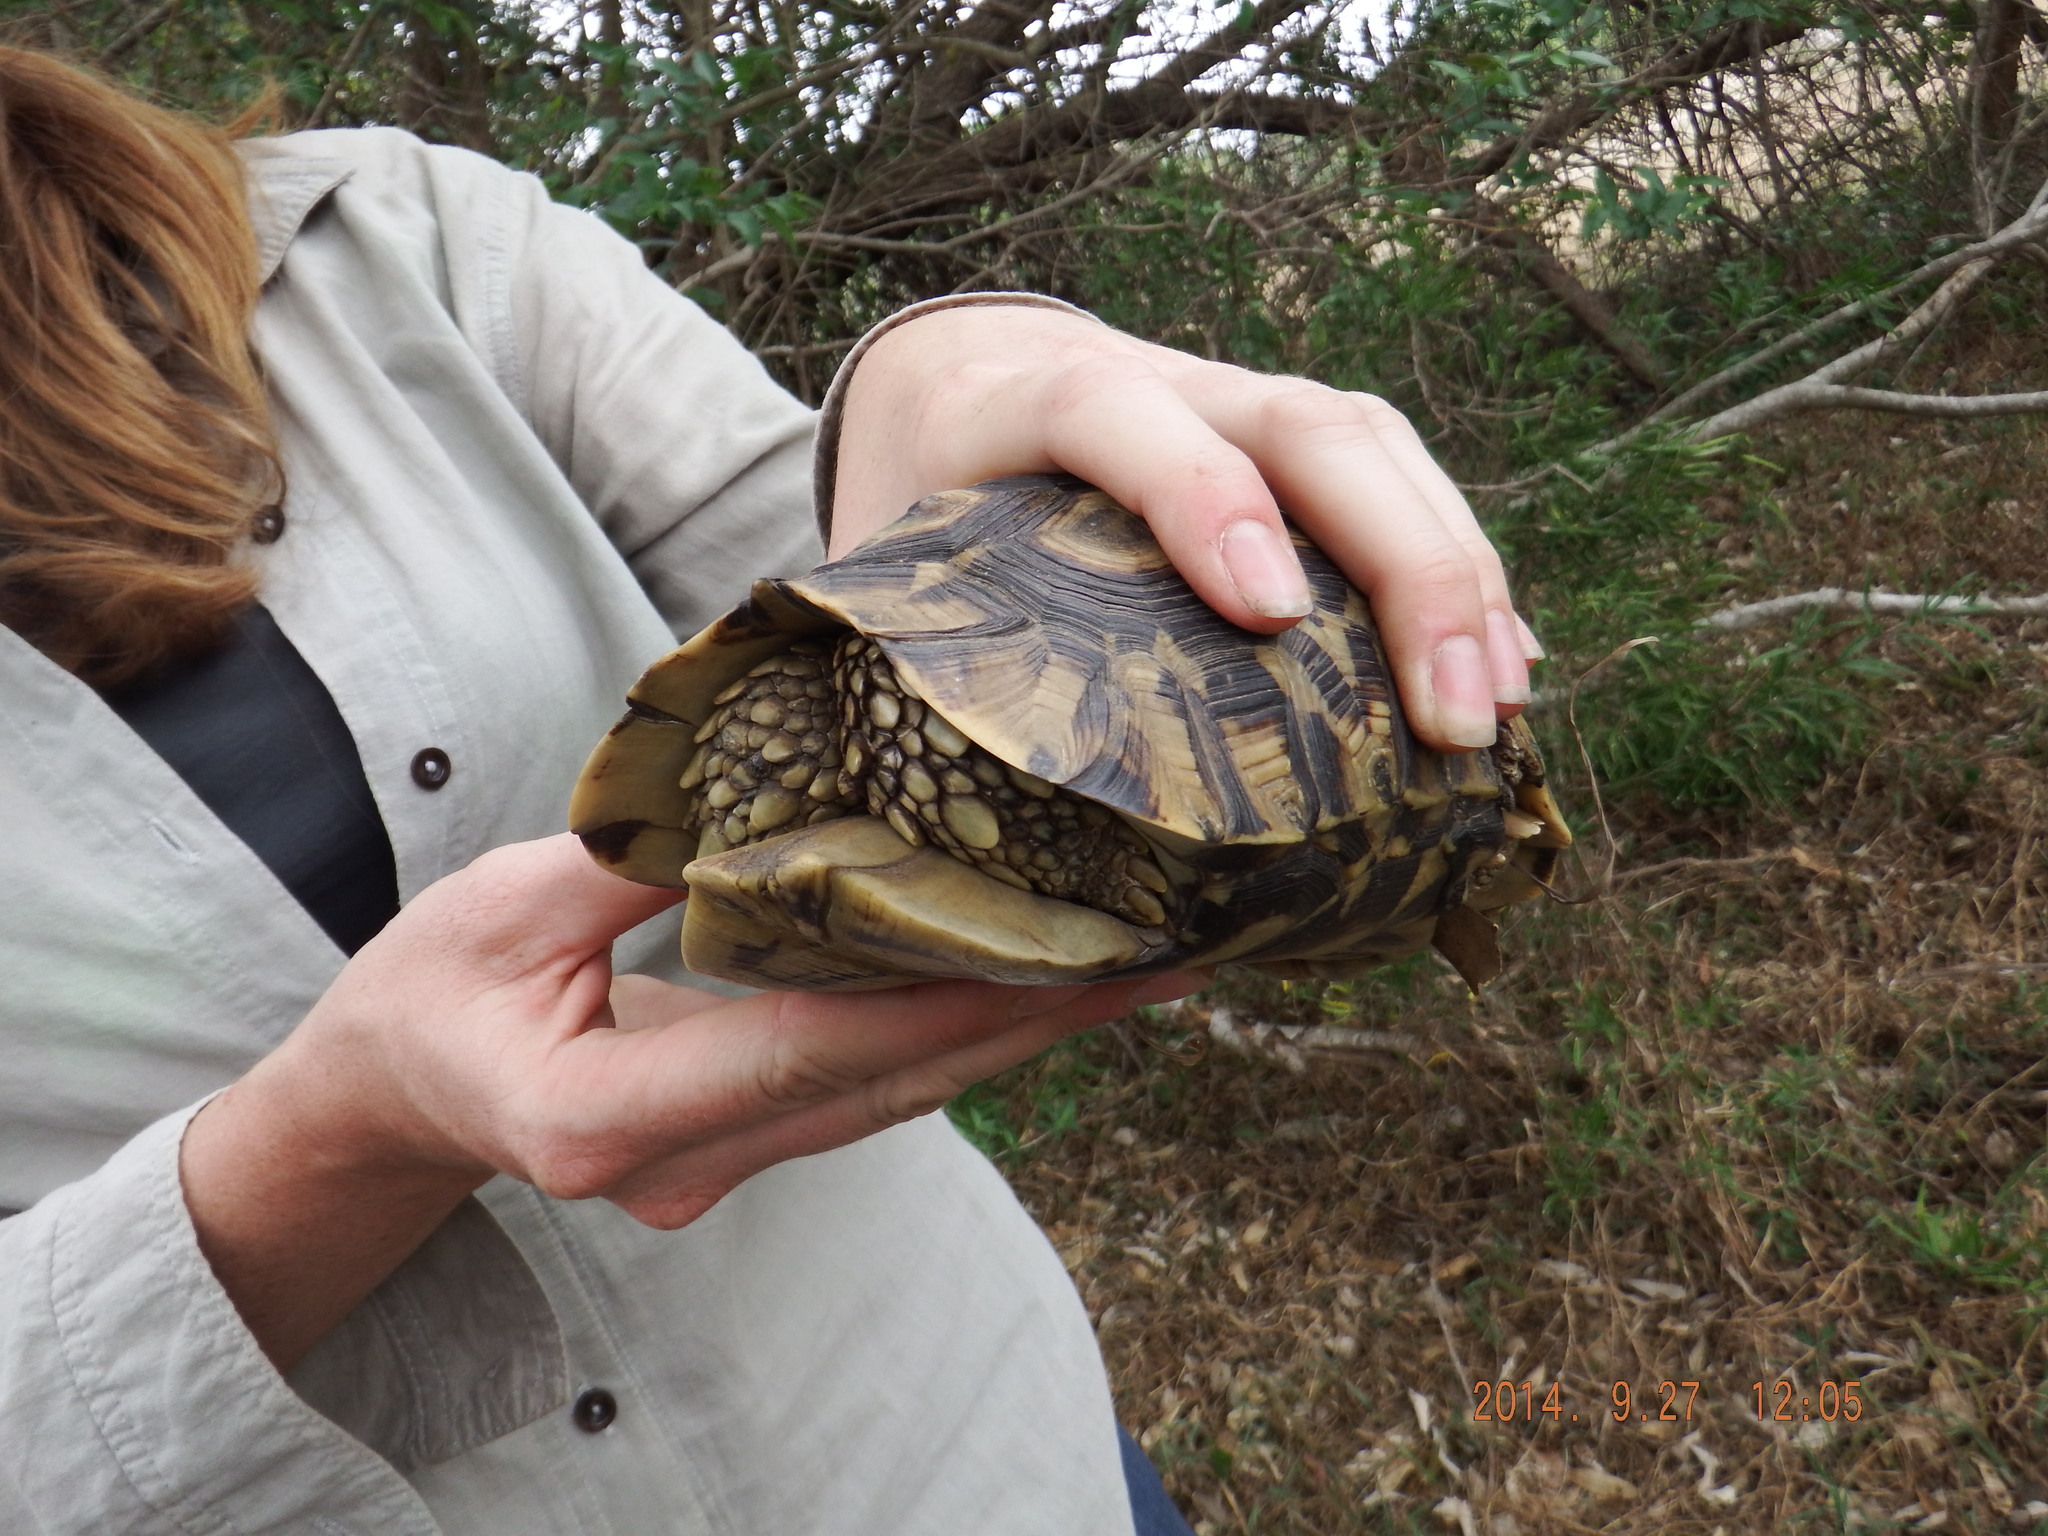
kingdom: Animalia
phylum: Chordata
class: Testudines
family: Testudinidae
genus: Kinixys
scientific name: Kinixys zombensis
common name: Southeastern hinge-back tortoise
